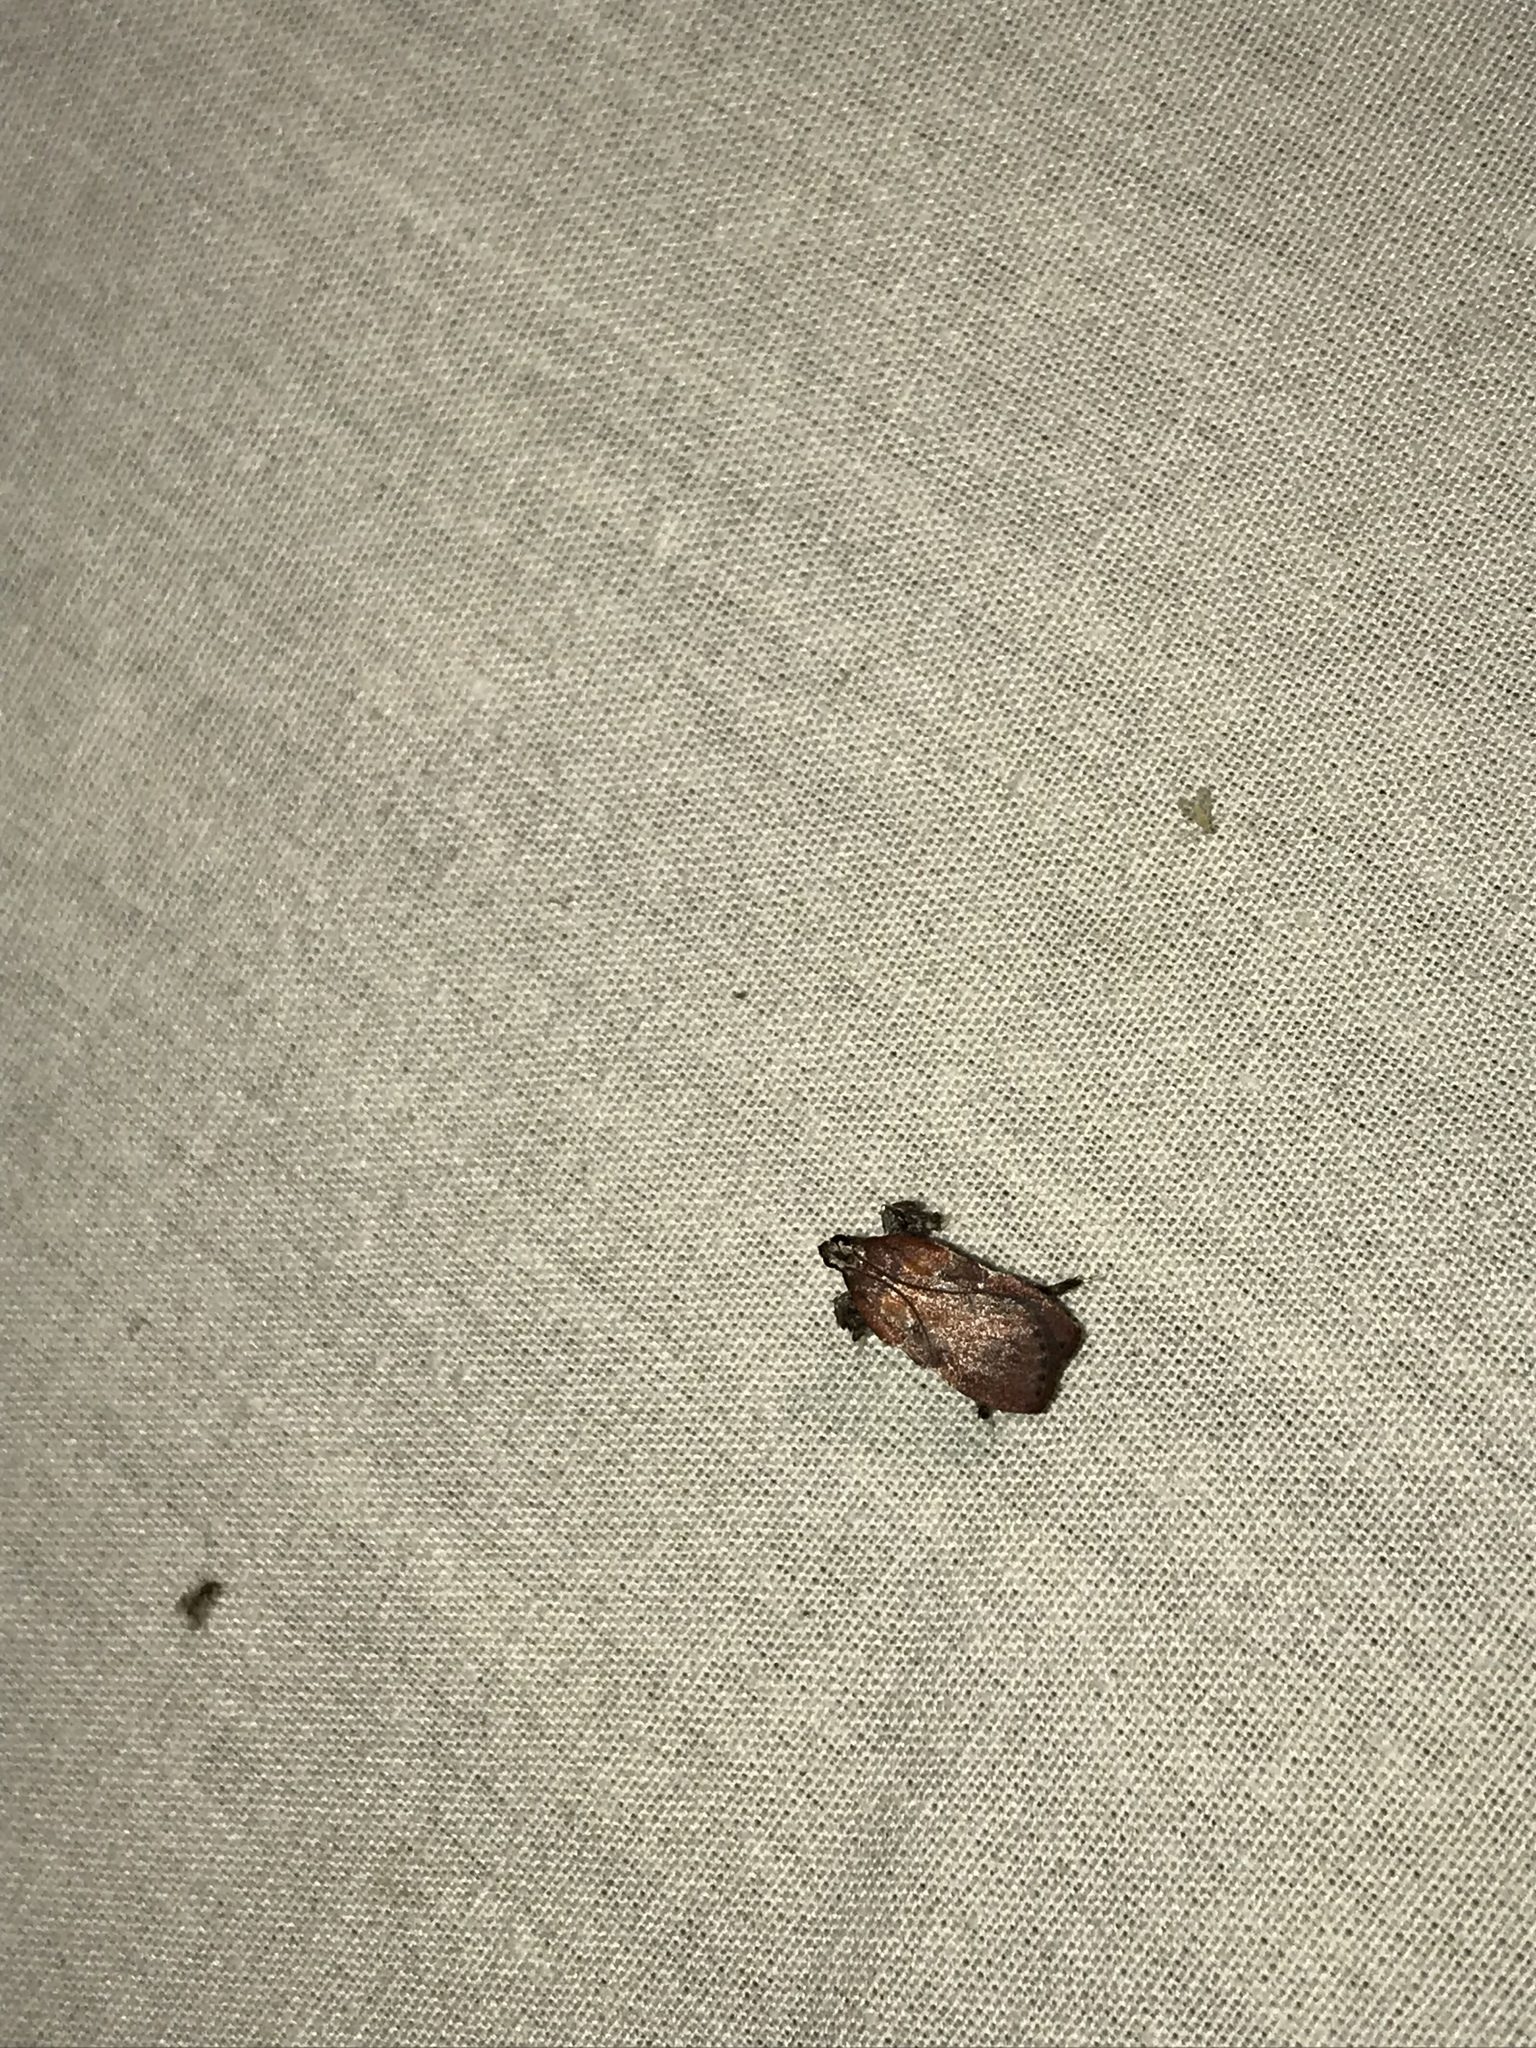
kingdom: Animalia
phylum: Arthropoda
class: Insecta
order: Lepidoptera
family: Pyralidae
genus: Galasa
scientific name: Galasa nigrinodis
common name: Boxwood leaftier moth
